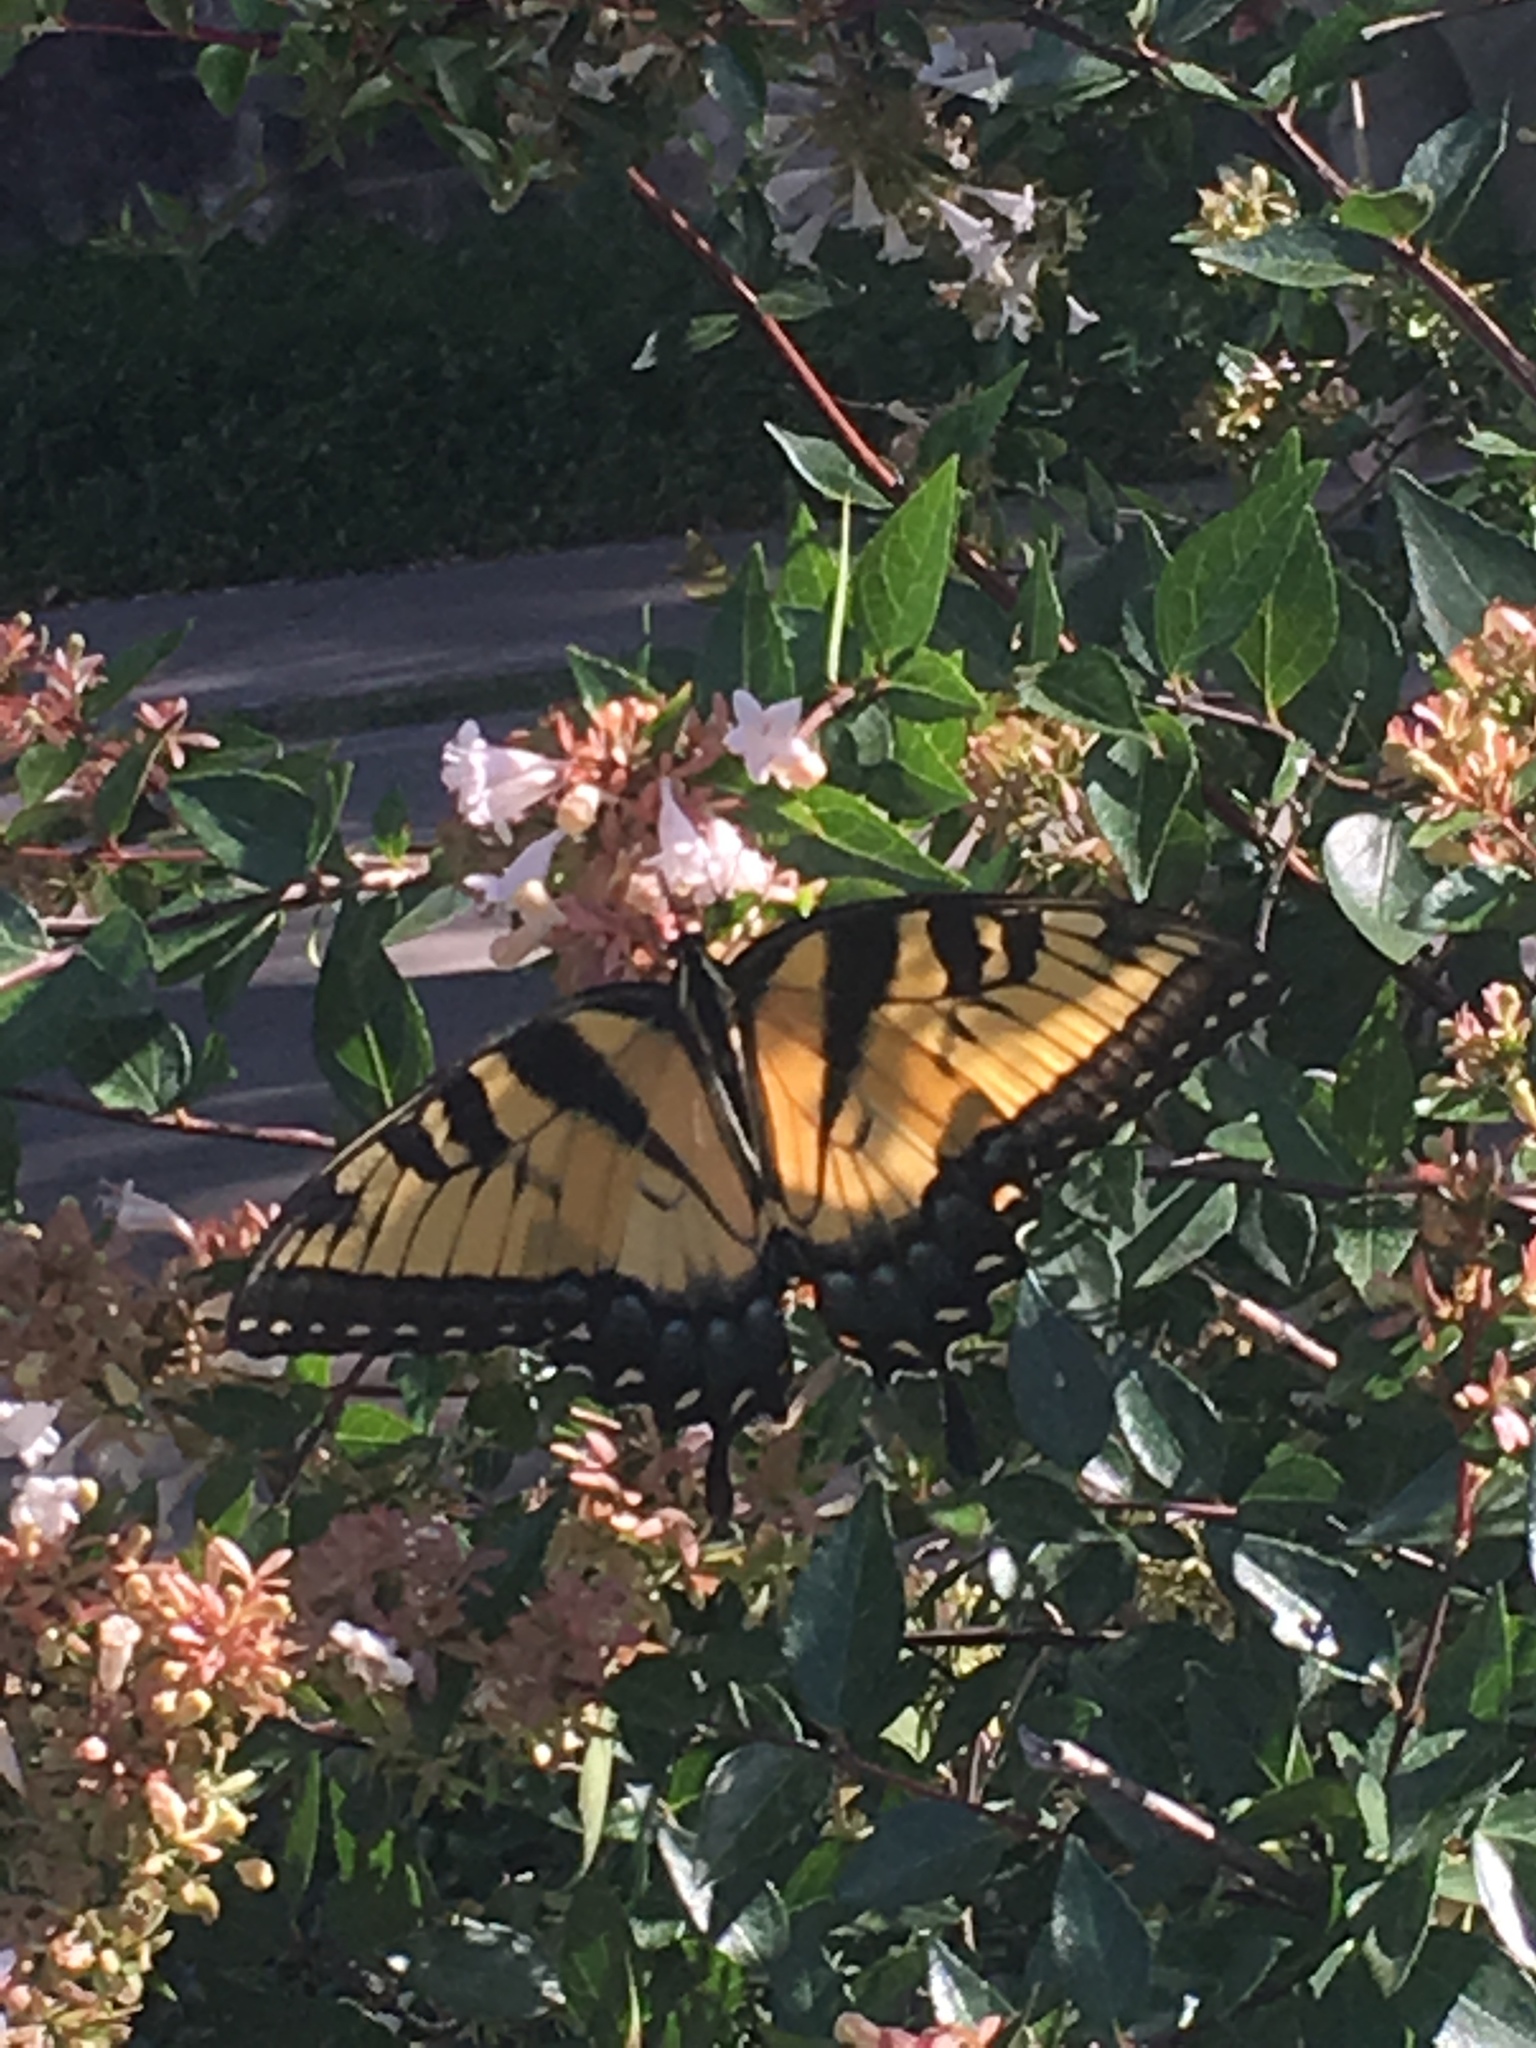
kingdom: Animalia
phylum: Arthropoda
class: Insecta
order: Lepidoptera
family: Papilionidae
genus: Papilio
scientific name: Papilio glaucus
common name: Tiger swallowtail
